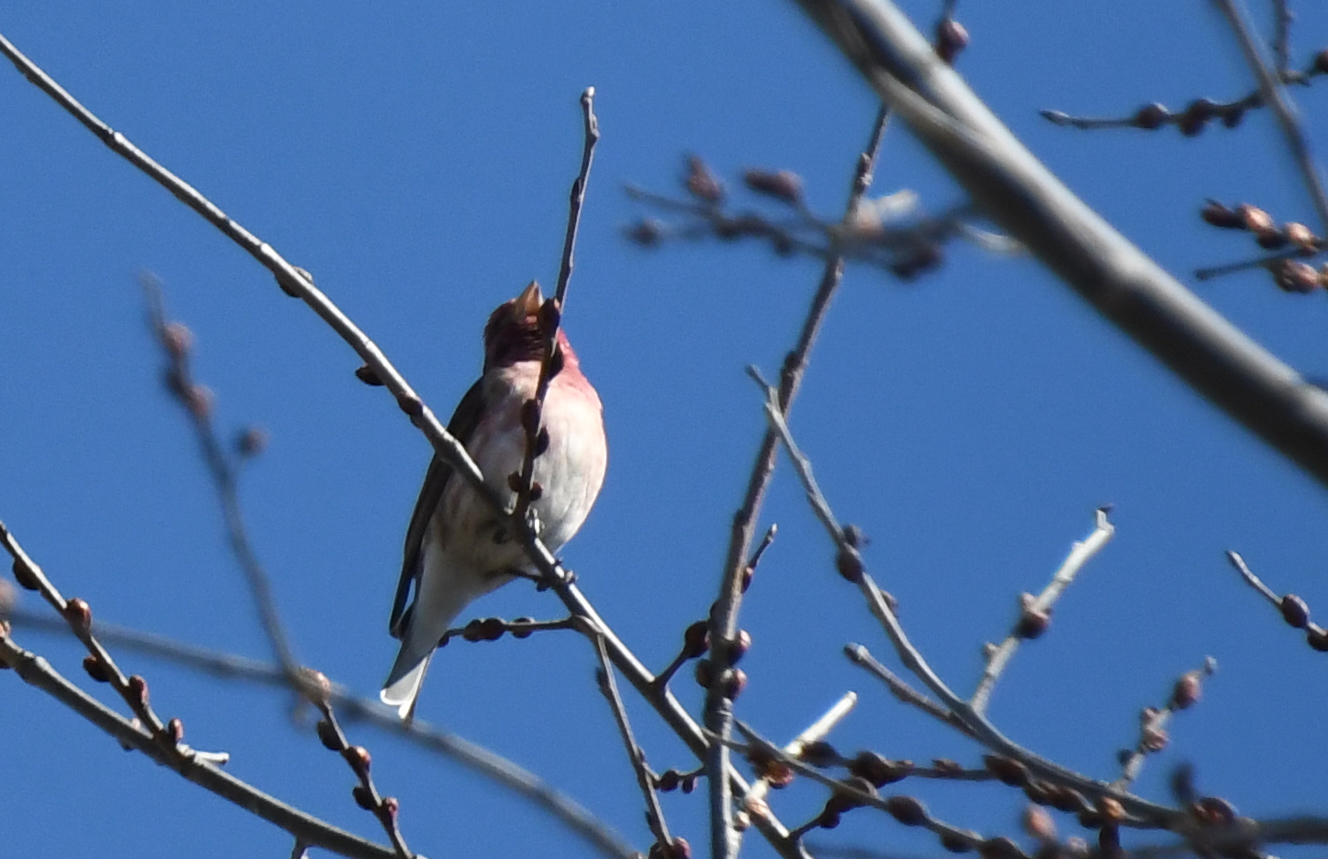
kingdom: Animalia
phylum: Chordata
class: Aves
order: Passeriformes
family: Fringillidae
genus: Haemorhous
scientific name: Haemorhous purpureus
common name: Purple finch
